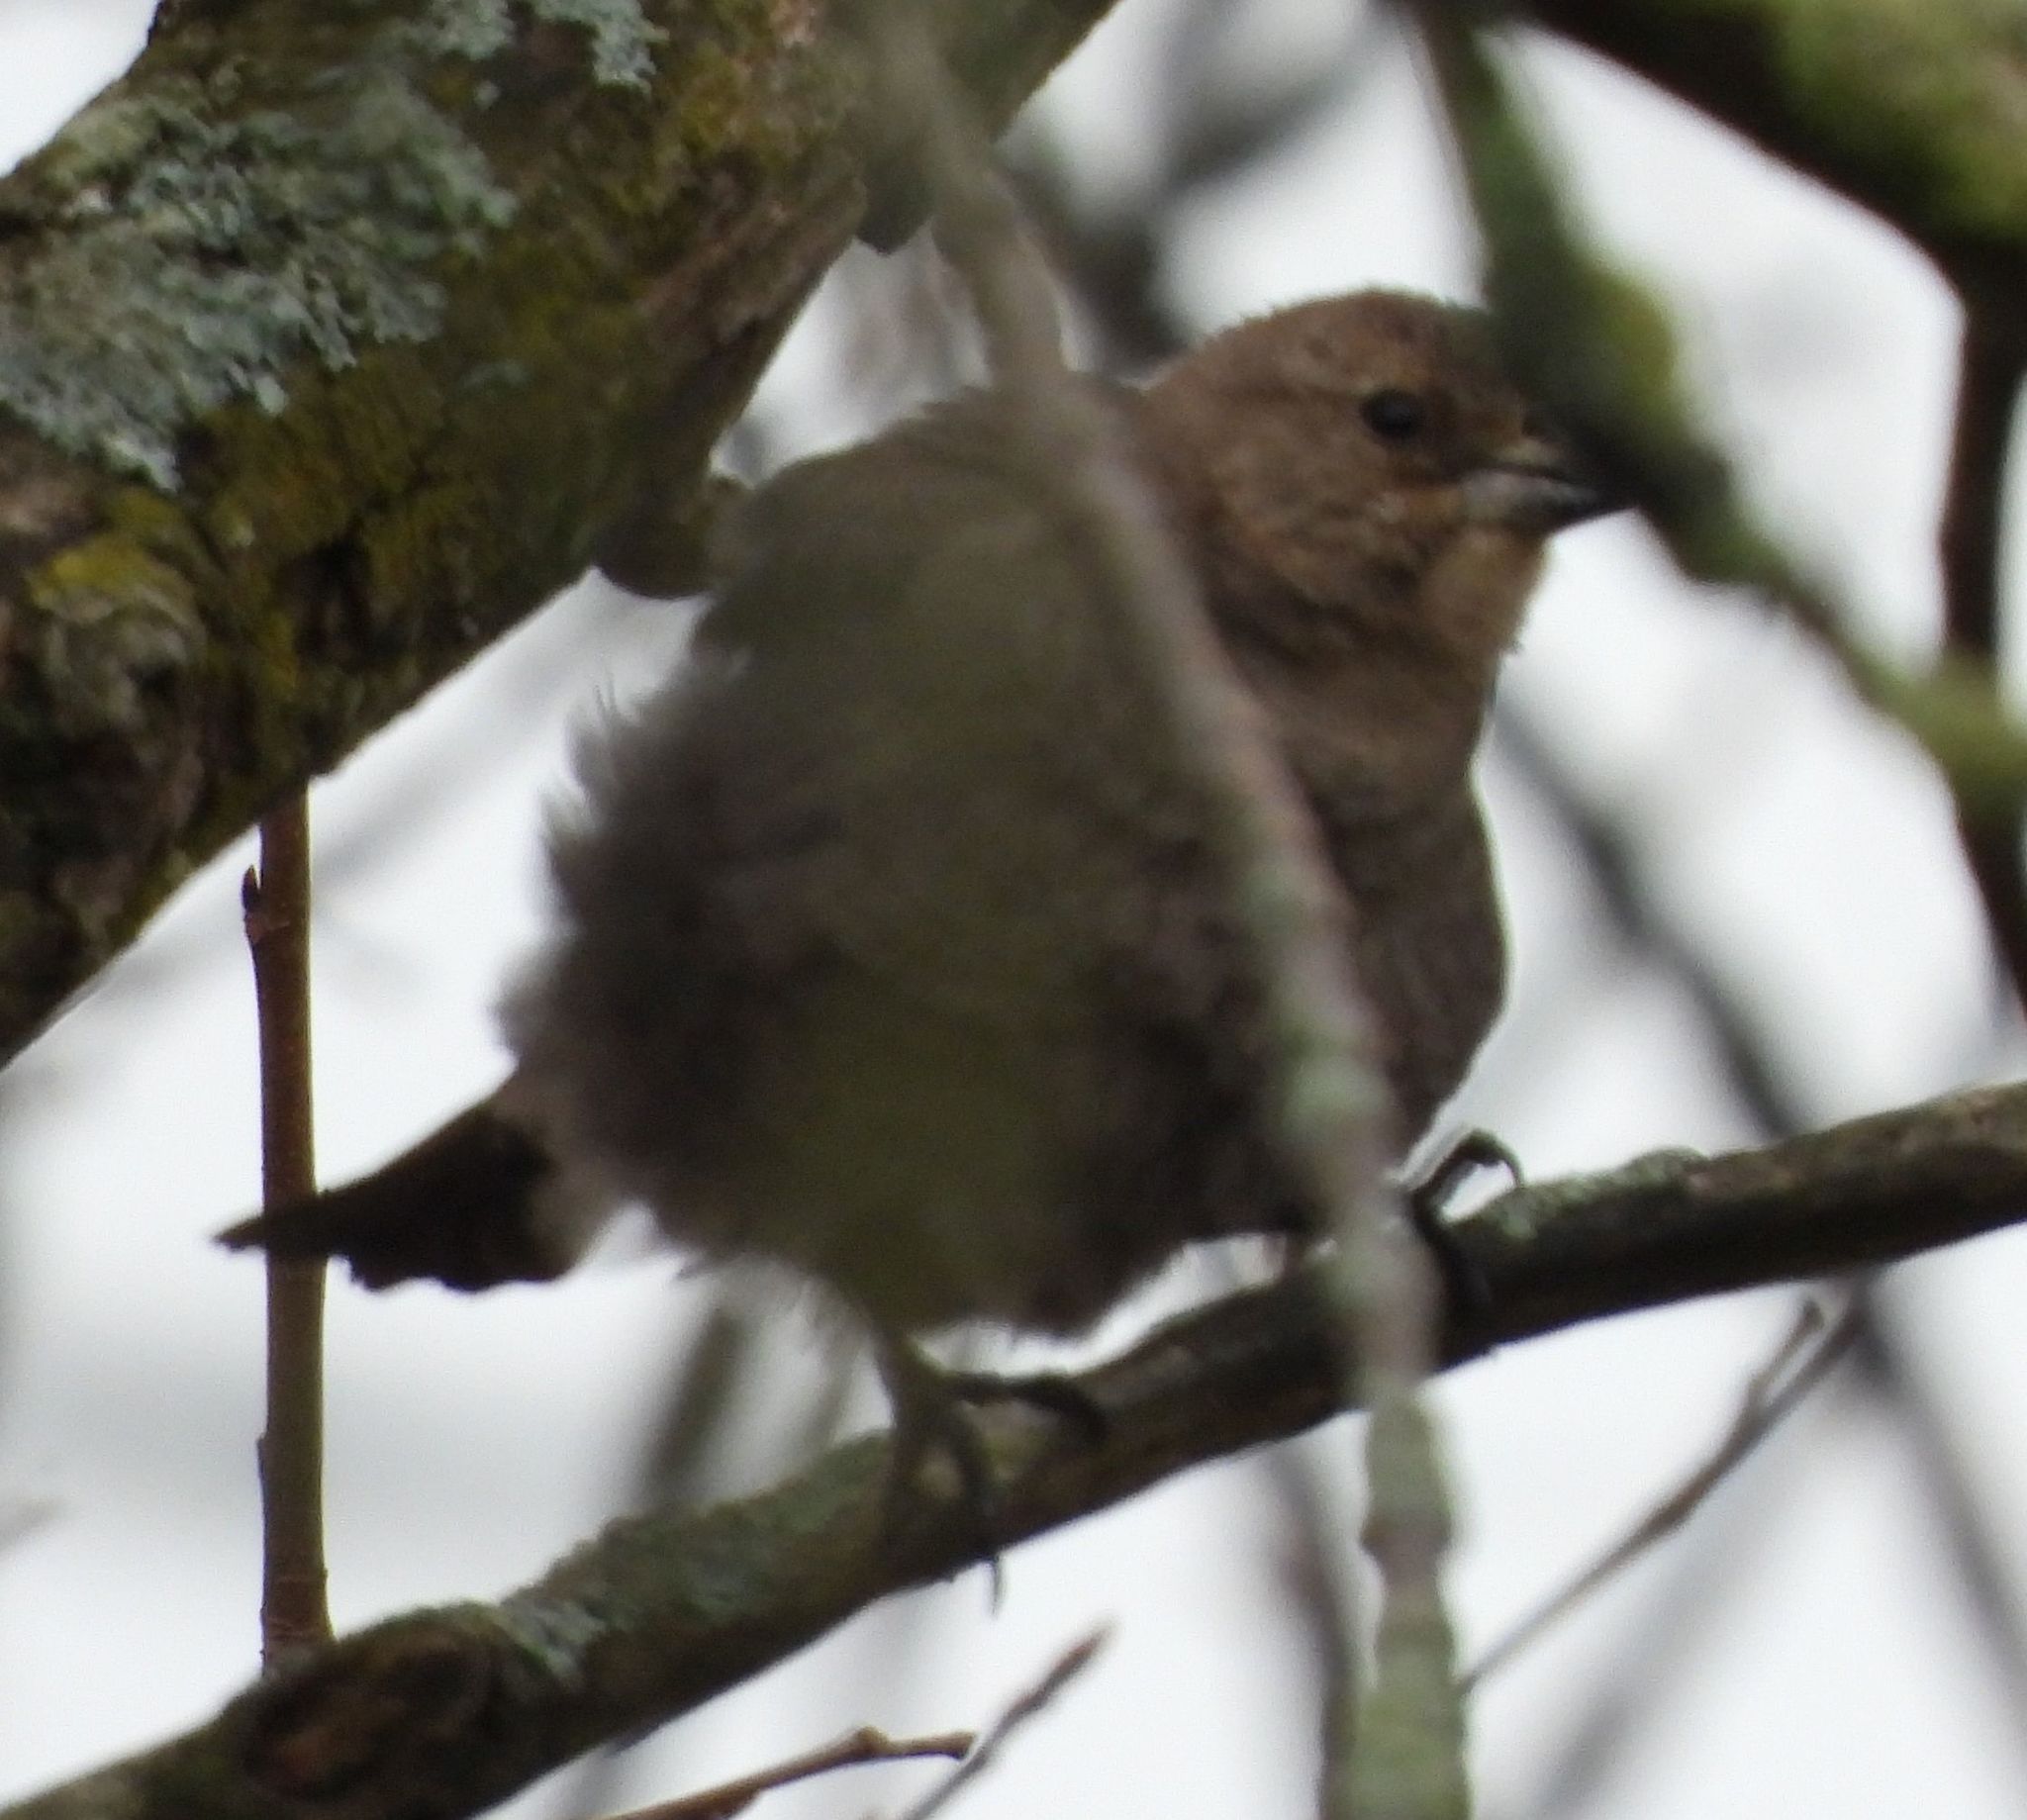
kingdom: Animalia
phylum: Chordata
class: Aves
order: Passeriformes
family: Icteridae
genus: Molothrus
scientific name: Molothrus ater
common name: Brown-headed cowbird
